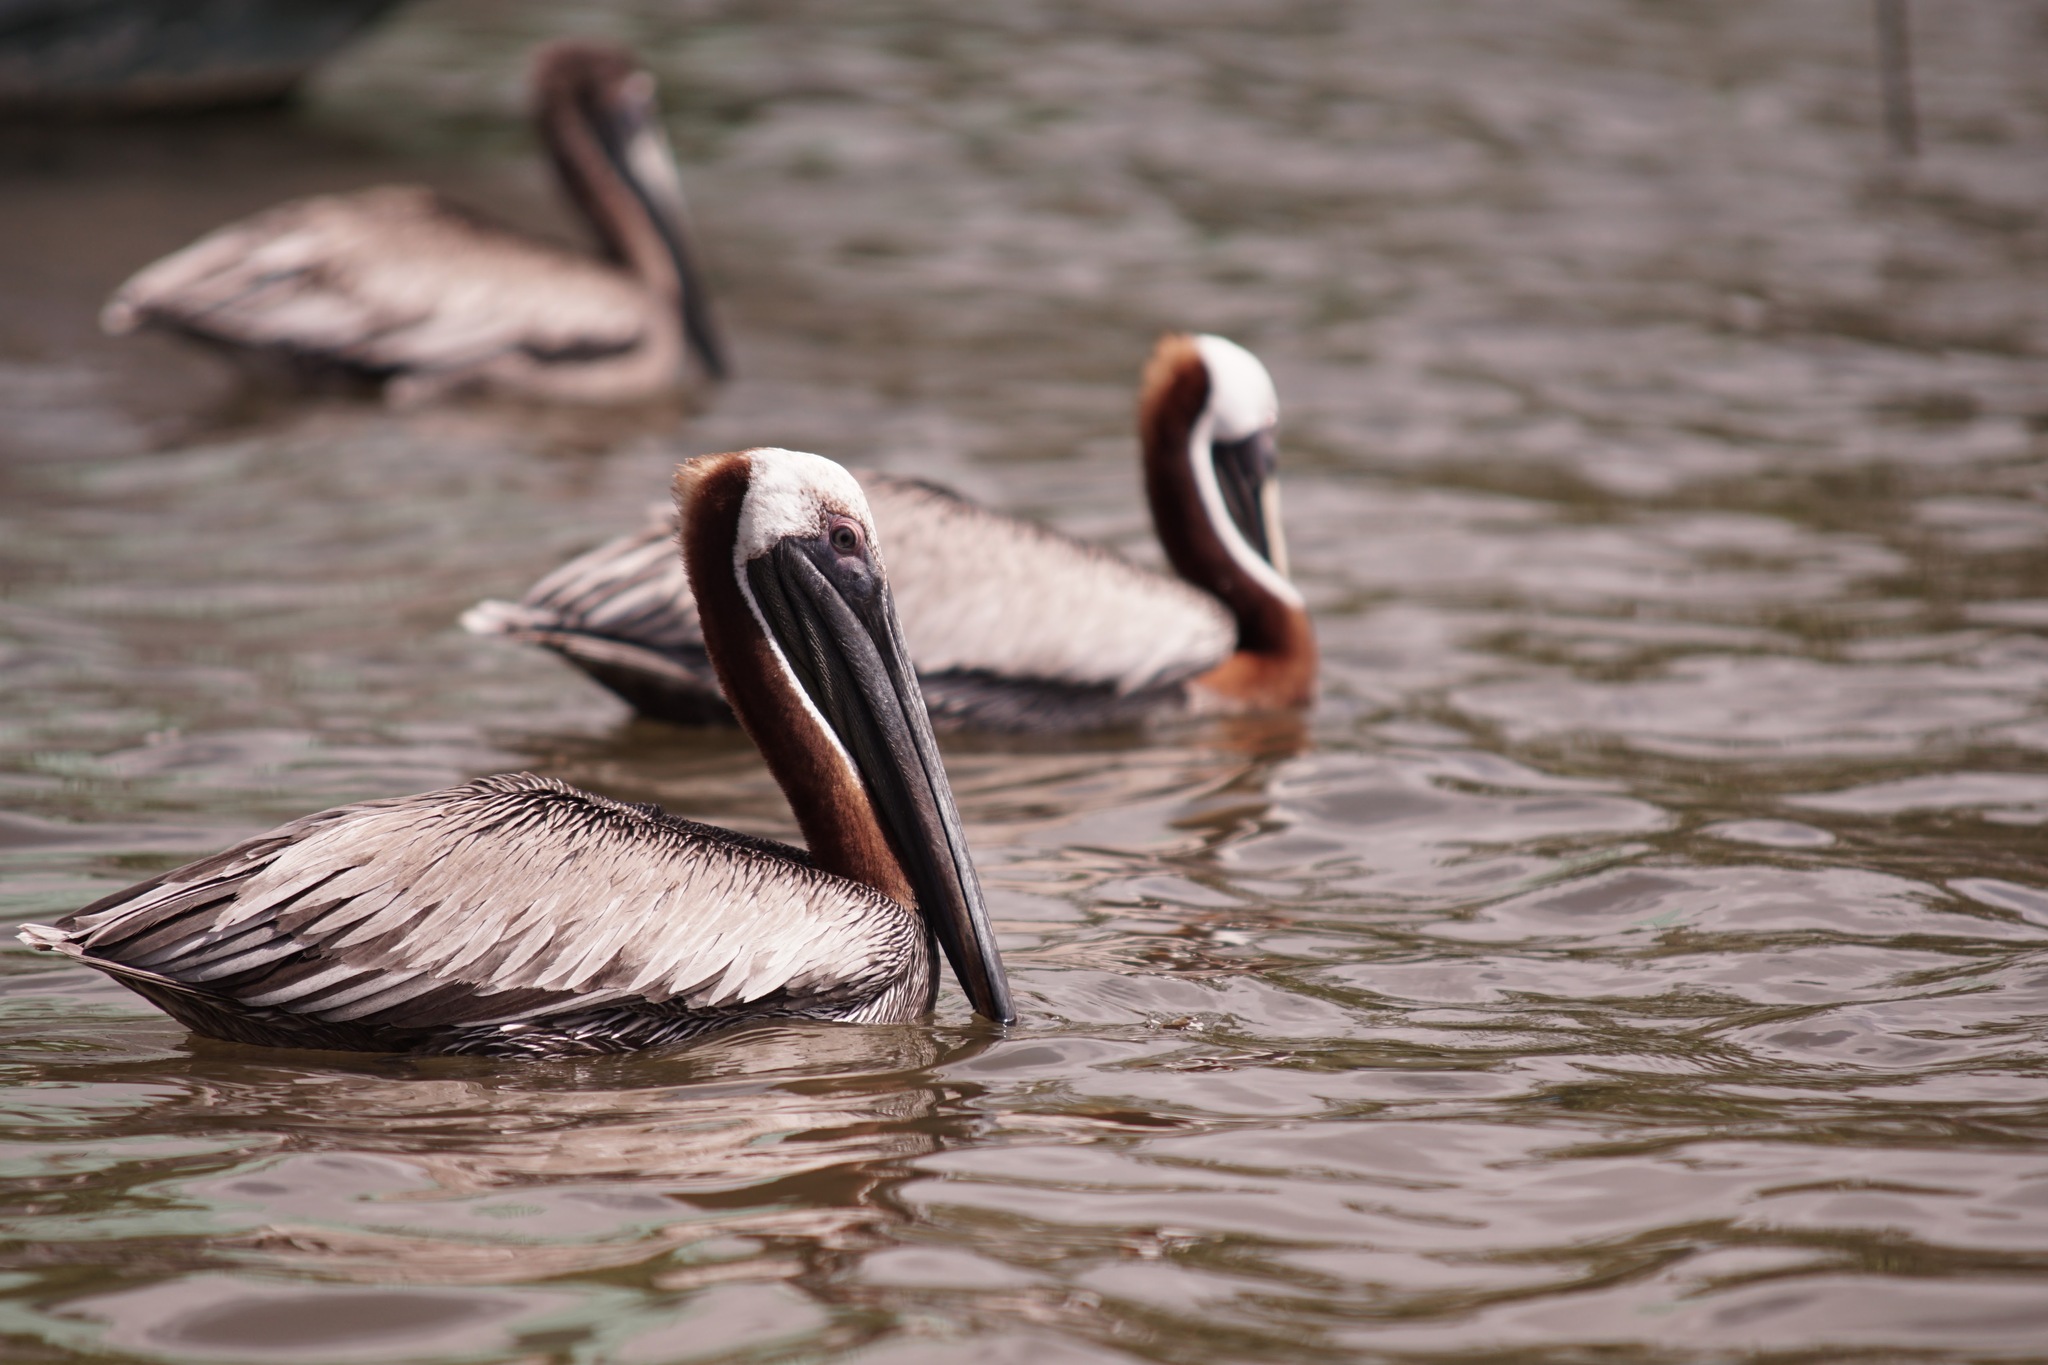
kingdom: Animalia
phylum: Chordata
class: Aves
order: Pelecaniformes
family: Pelecanidae
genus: Pelecanus
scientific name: Pelecanus occidentalis
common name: Brown pelican
